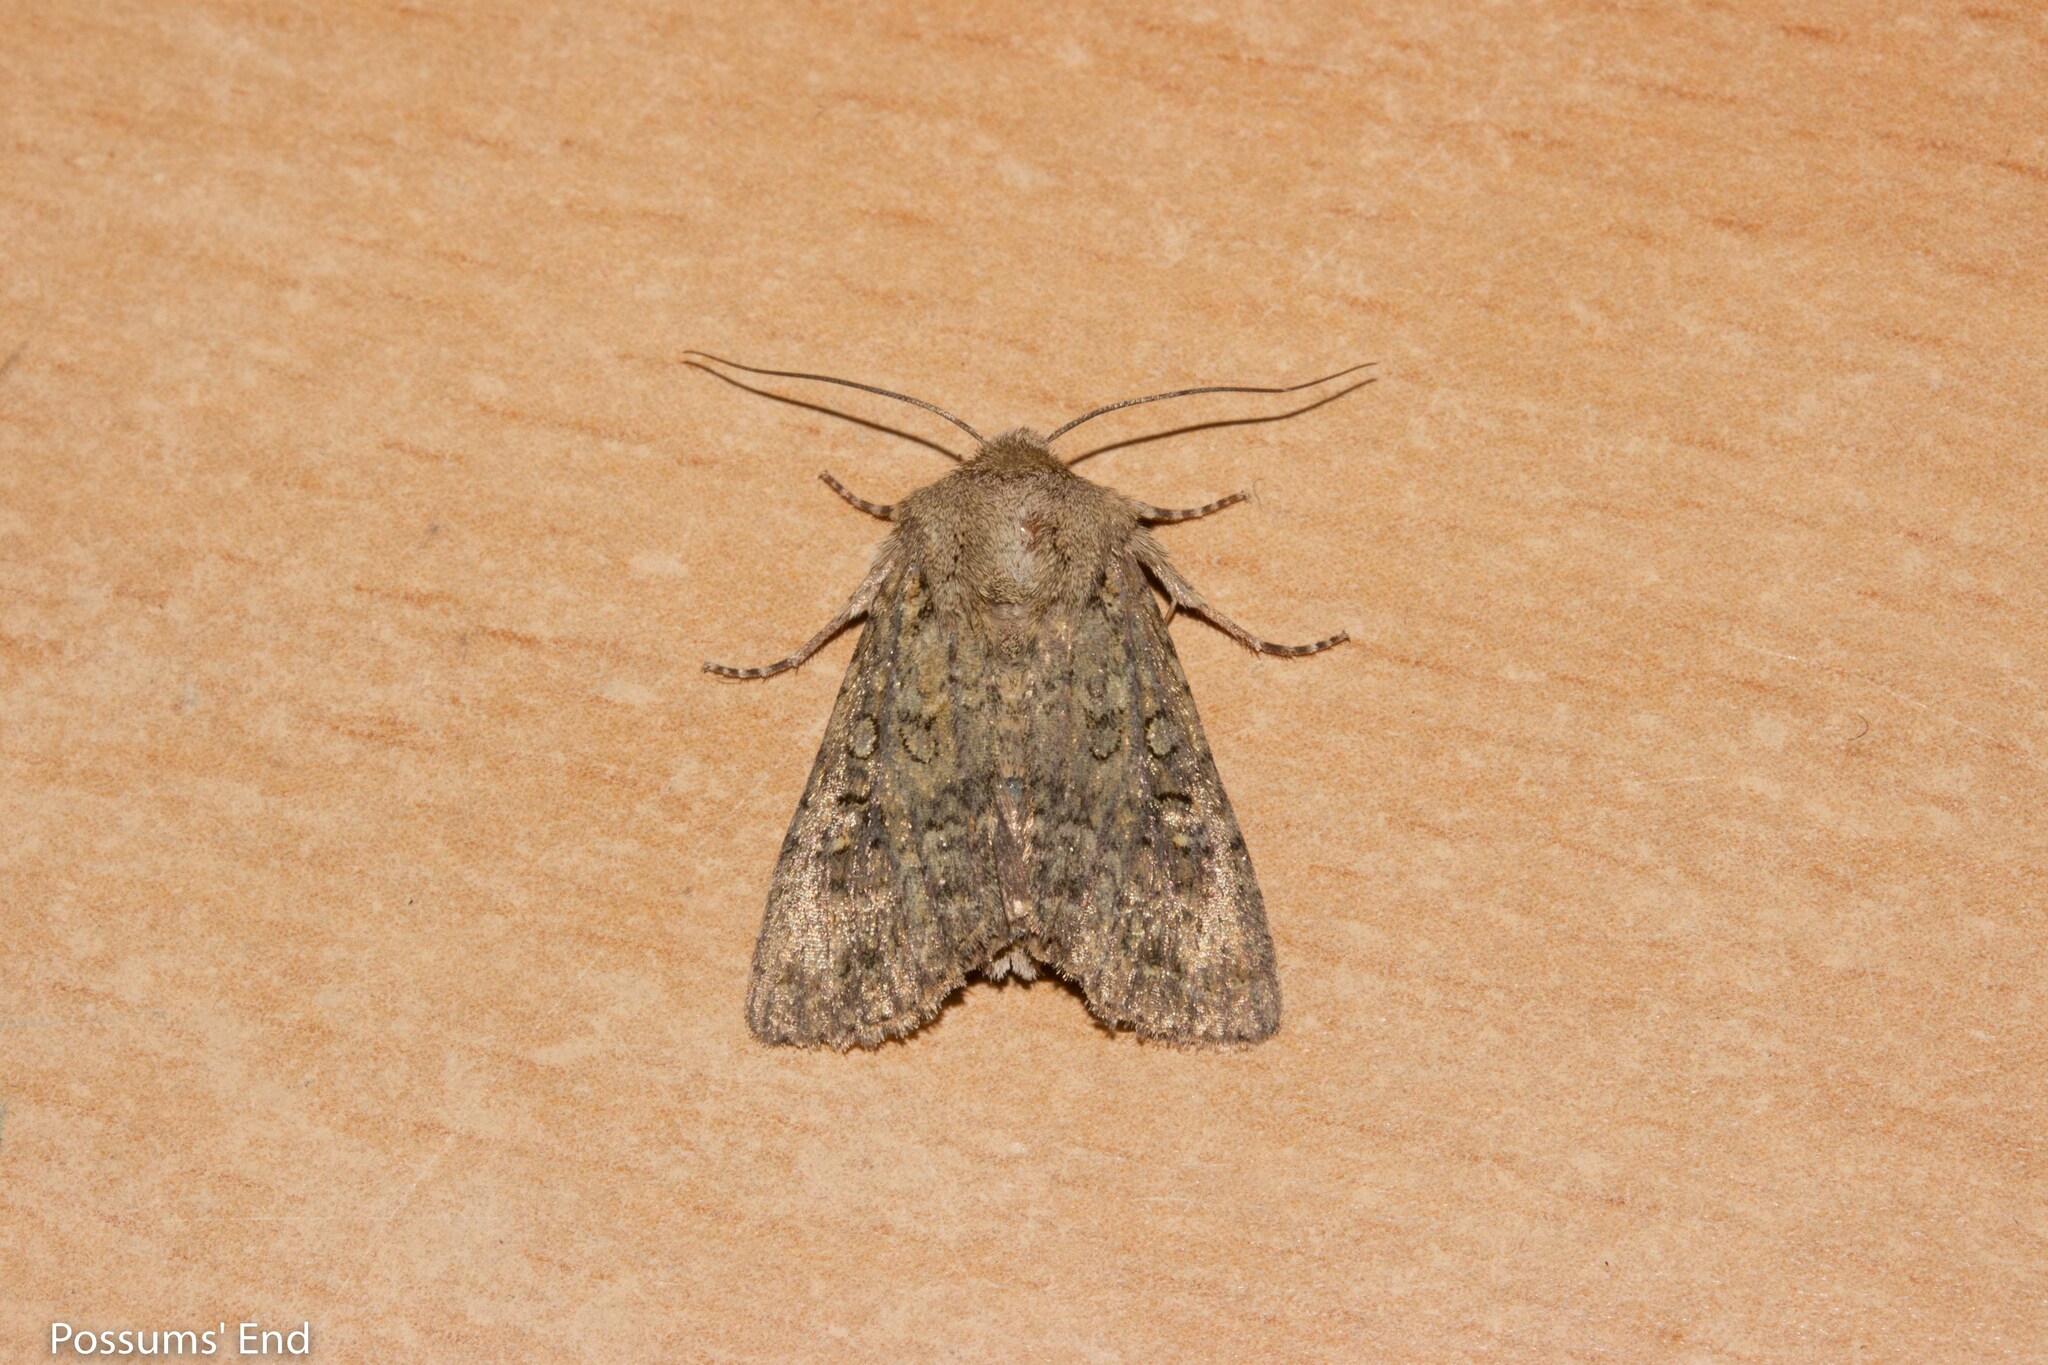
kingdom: Animalia
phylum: Arthropoda
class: Insecta
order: Lepidoptera
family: Noctuidae
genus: Ichneutica
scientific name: Ichneutica barbara
